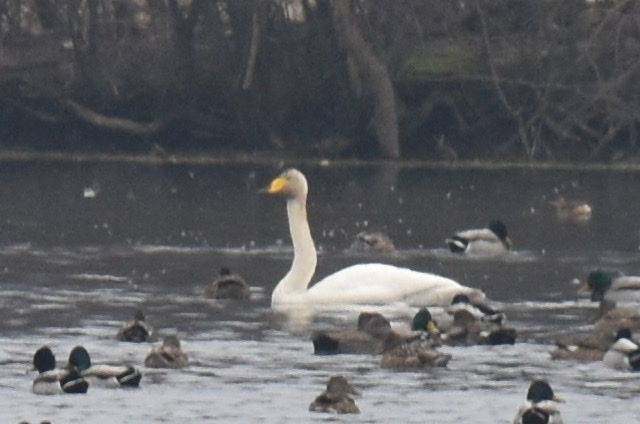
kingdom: Animalia
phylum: Chordata
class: Aves
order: Anseriformes
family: Anatidae
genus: Cygnus
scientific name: Cygnus cygnus
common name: Whooper swan
